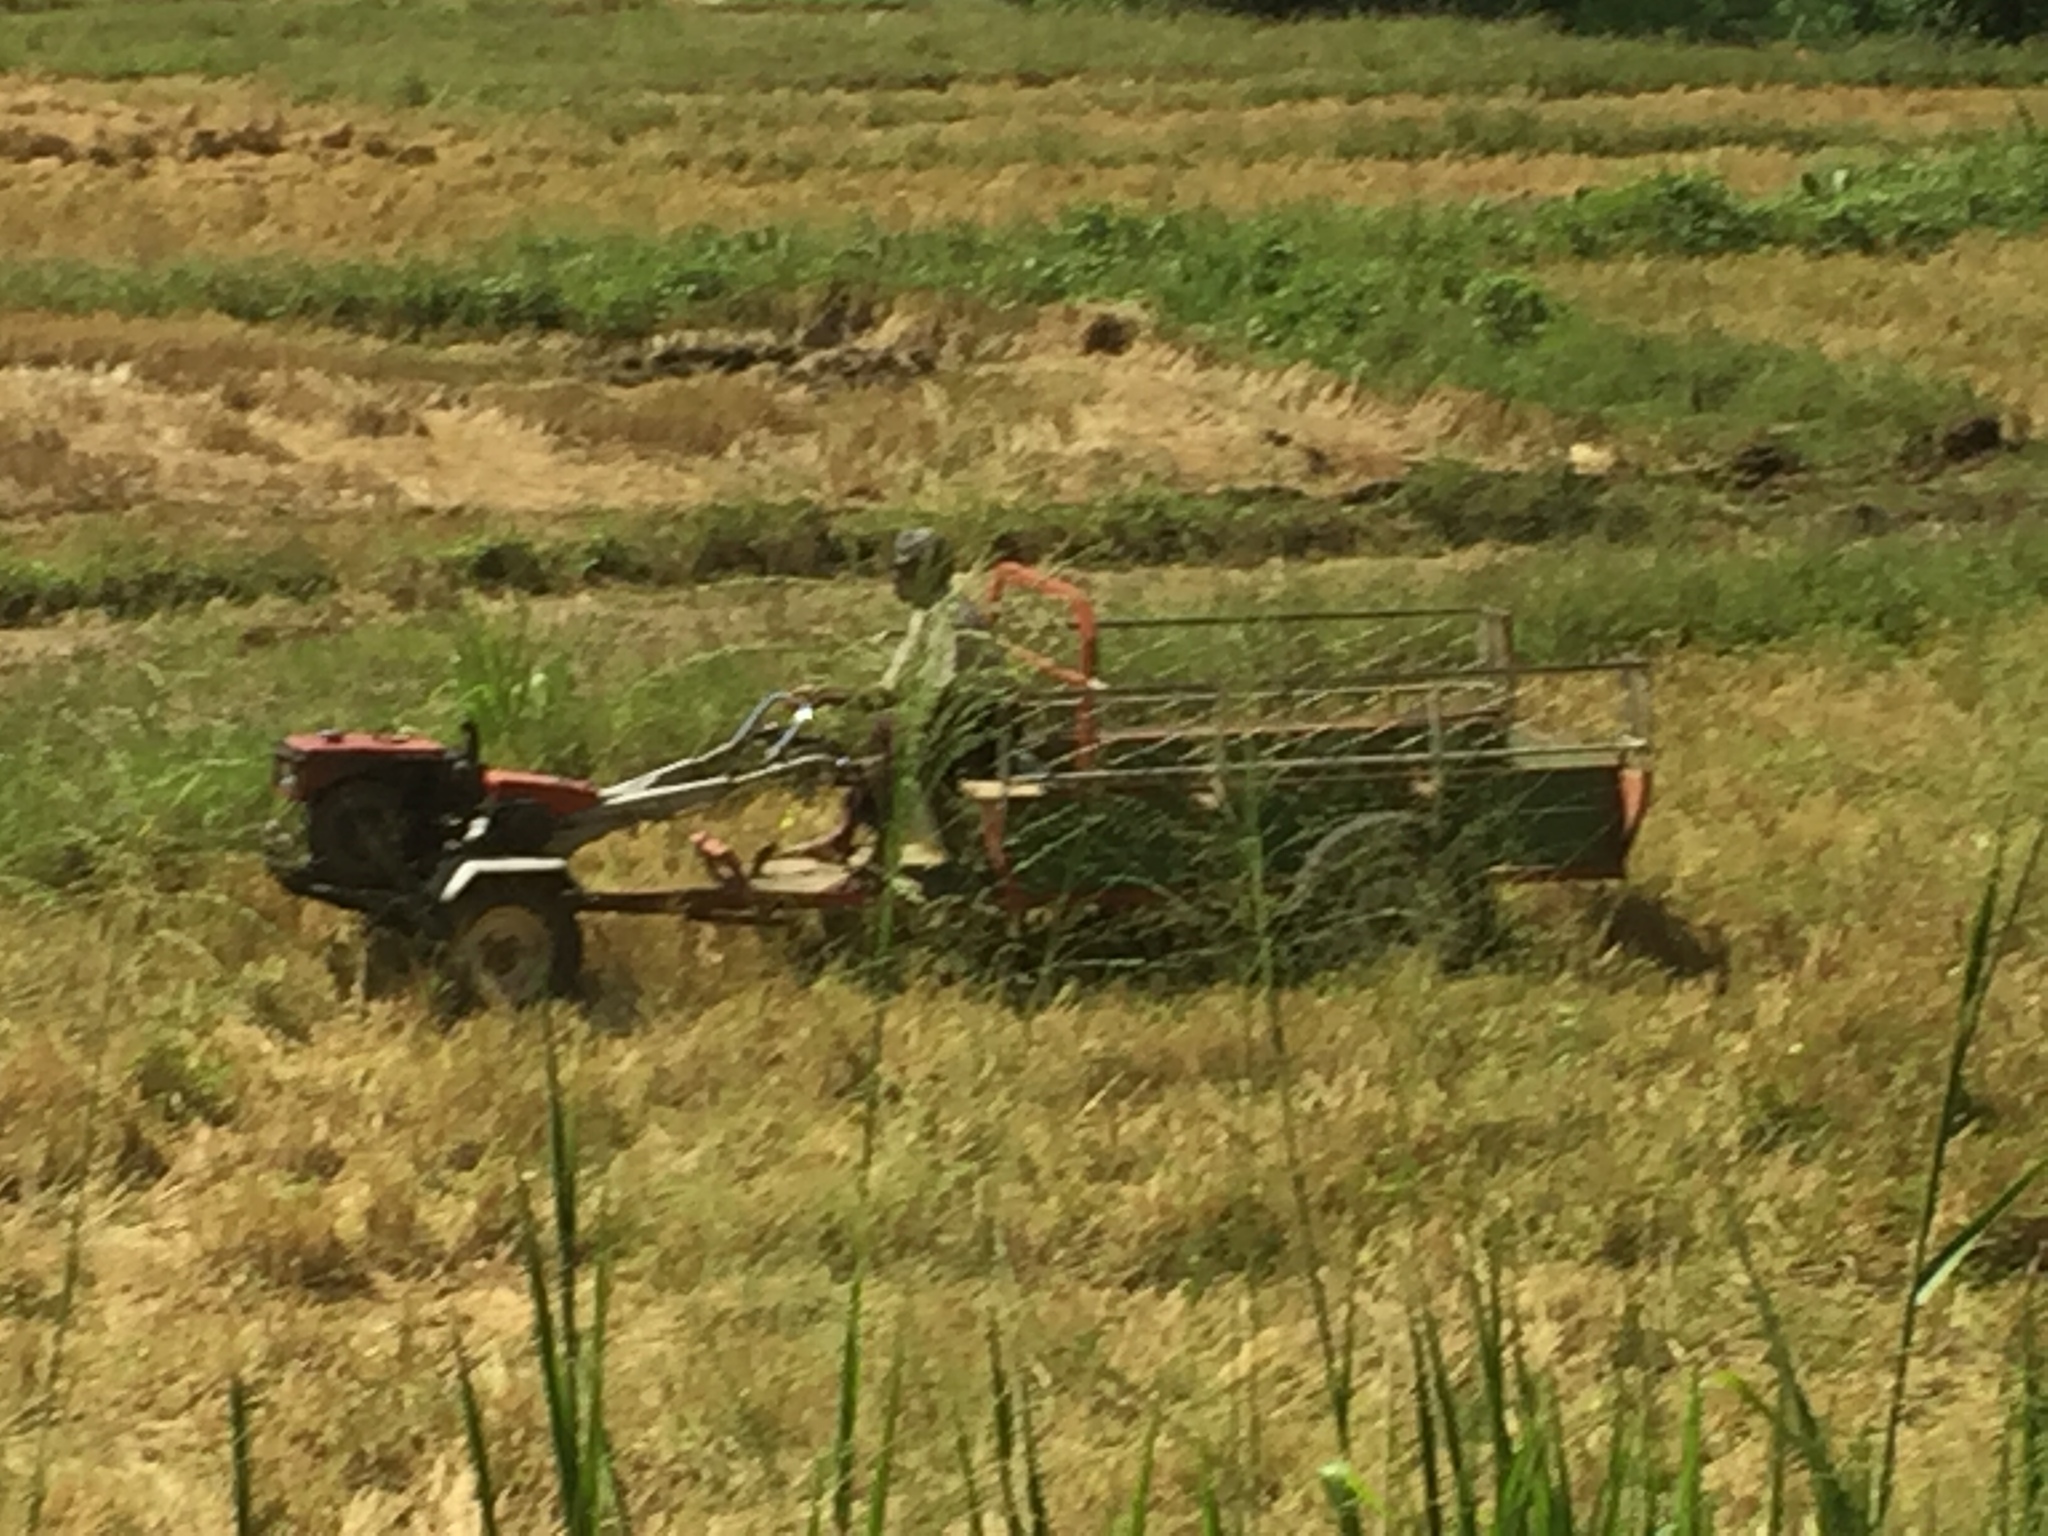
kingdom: Animalia
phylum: Chordata
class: Aves
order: Pelecaniformes
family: Ardeidae
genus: Bubulcus
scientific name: Bubulcus coromandus
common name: Eastern cattle egret
